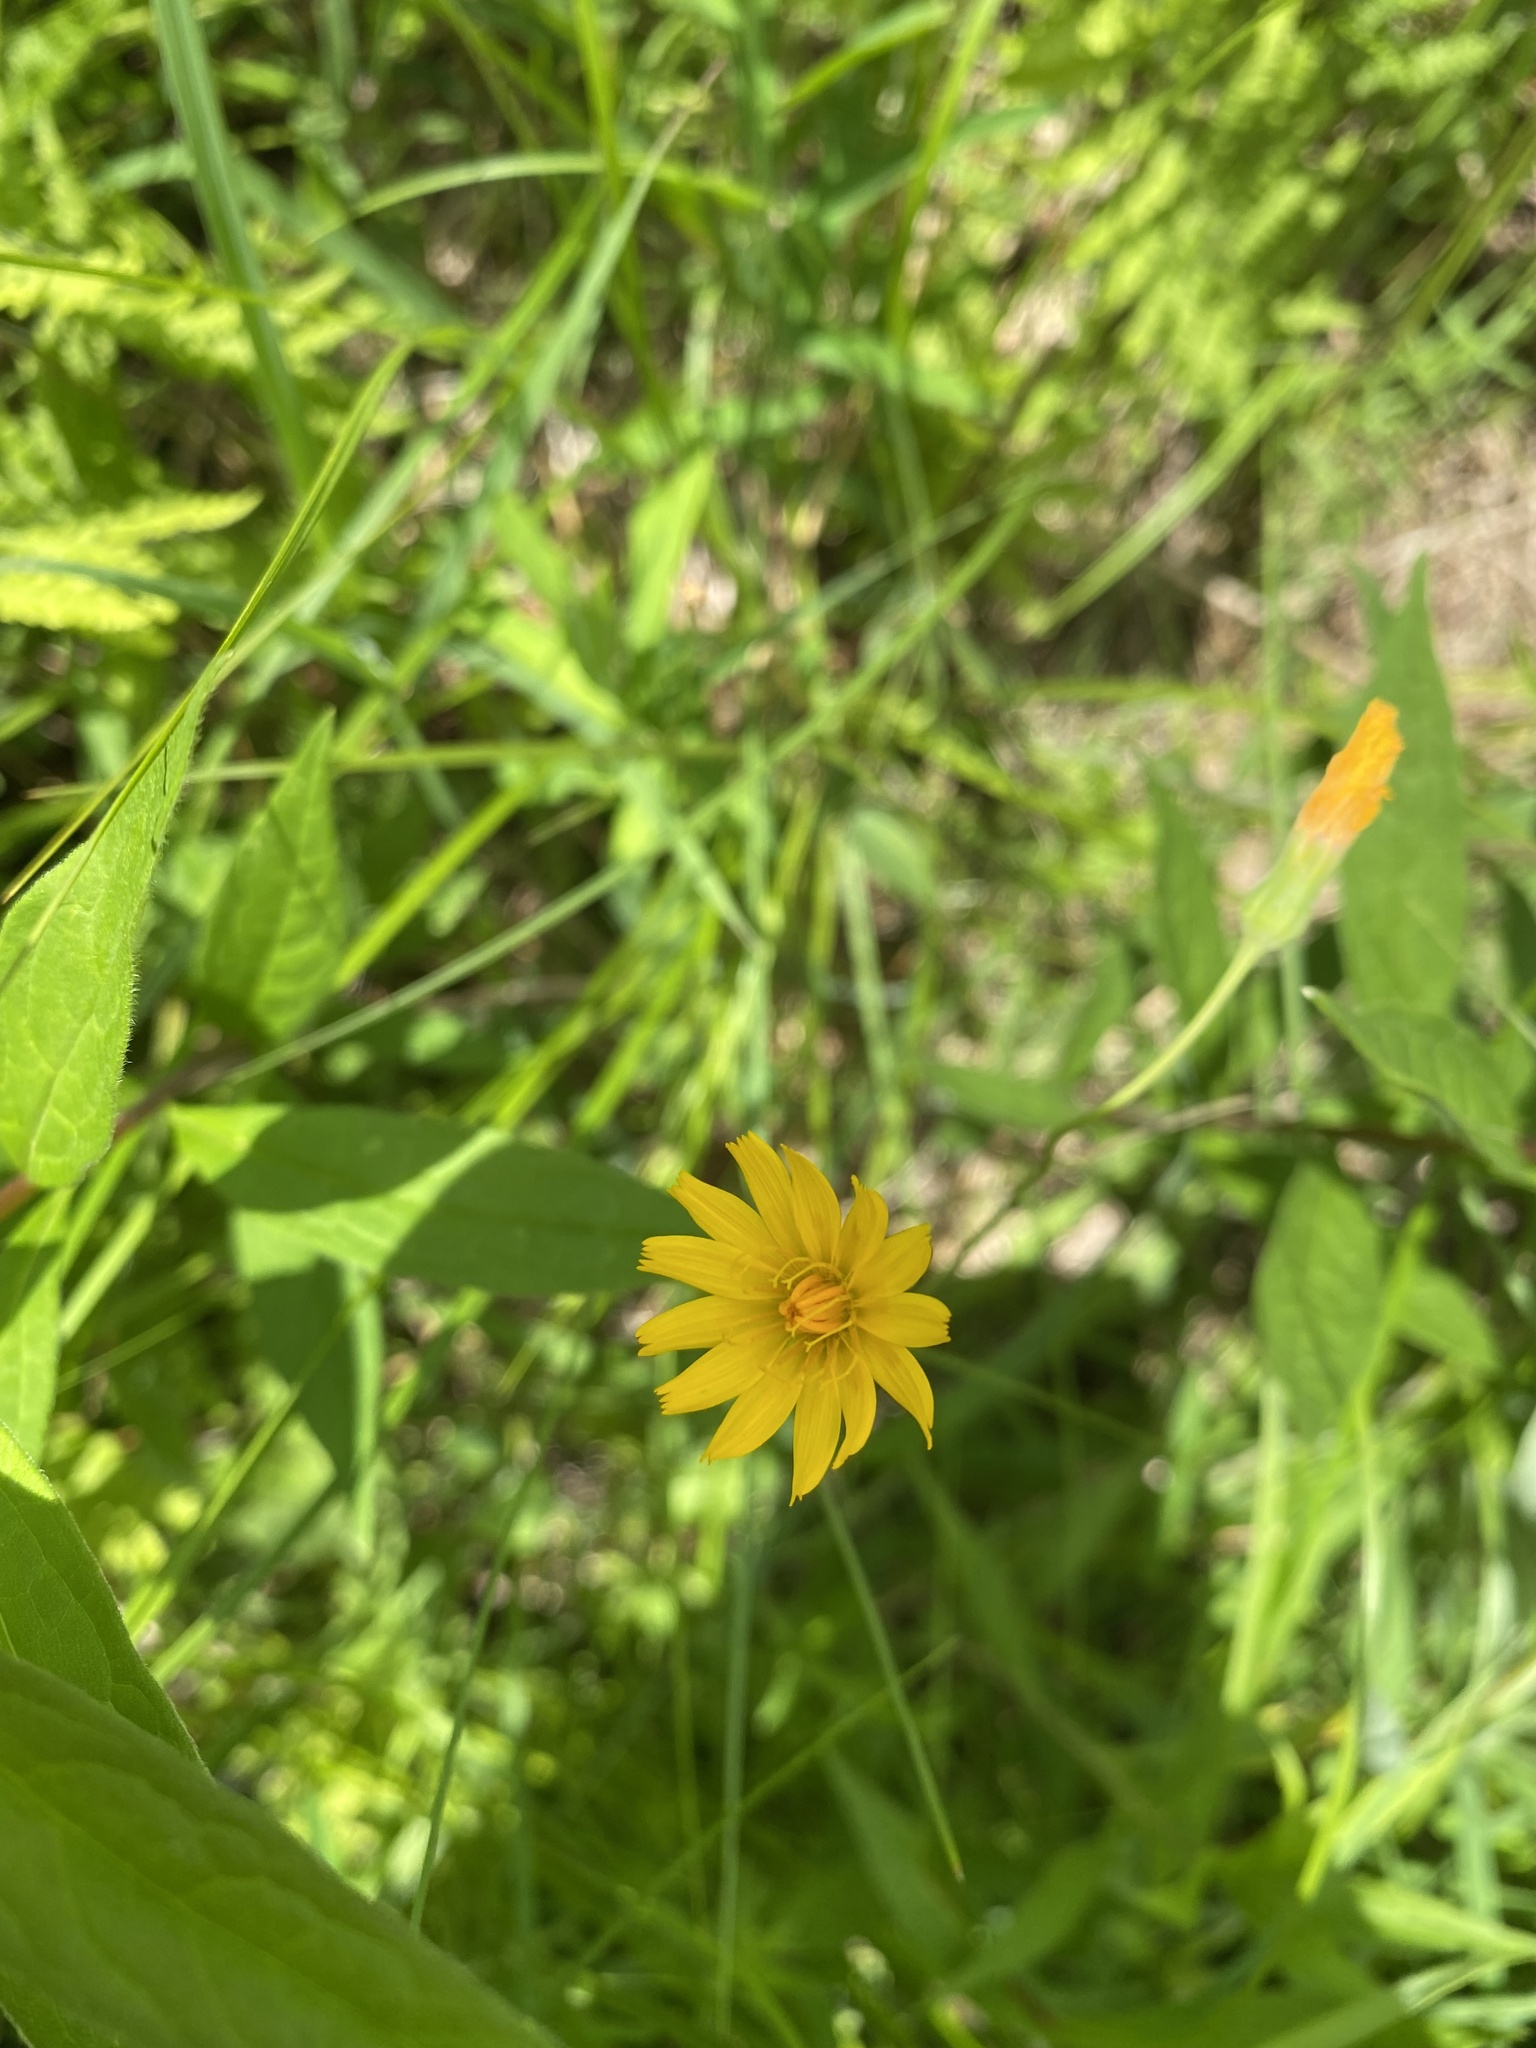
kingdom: Plantae
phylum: Tracheophyta
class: Magnoliopsida
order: Asterales
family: Asteraceae
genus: Krigia
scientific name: Krigia biflora
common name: Orange dwarf-dandelion
